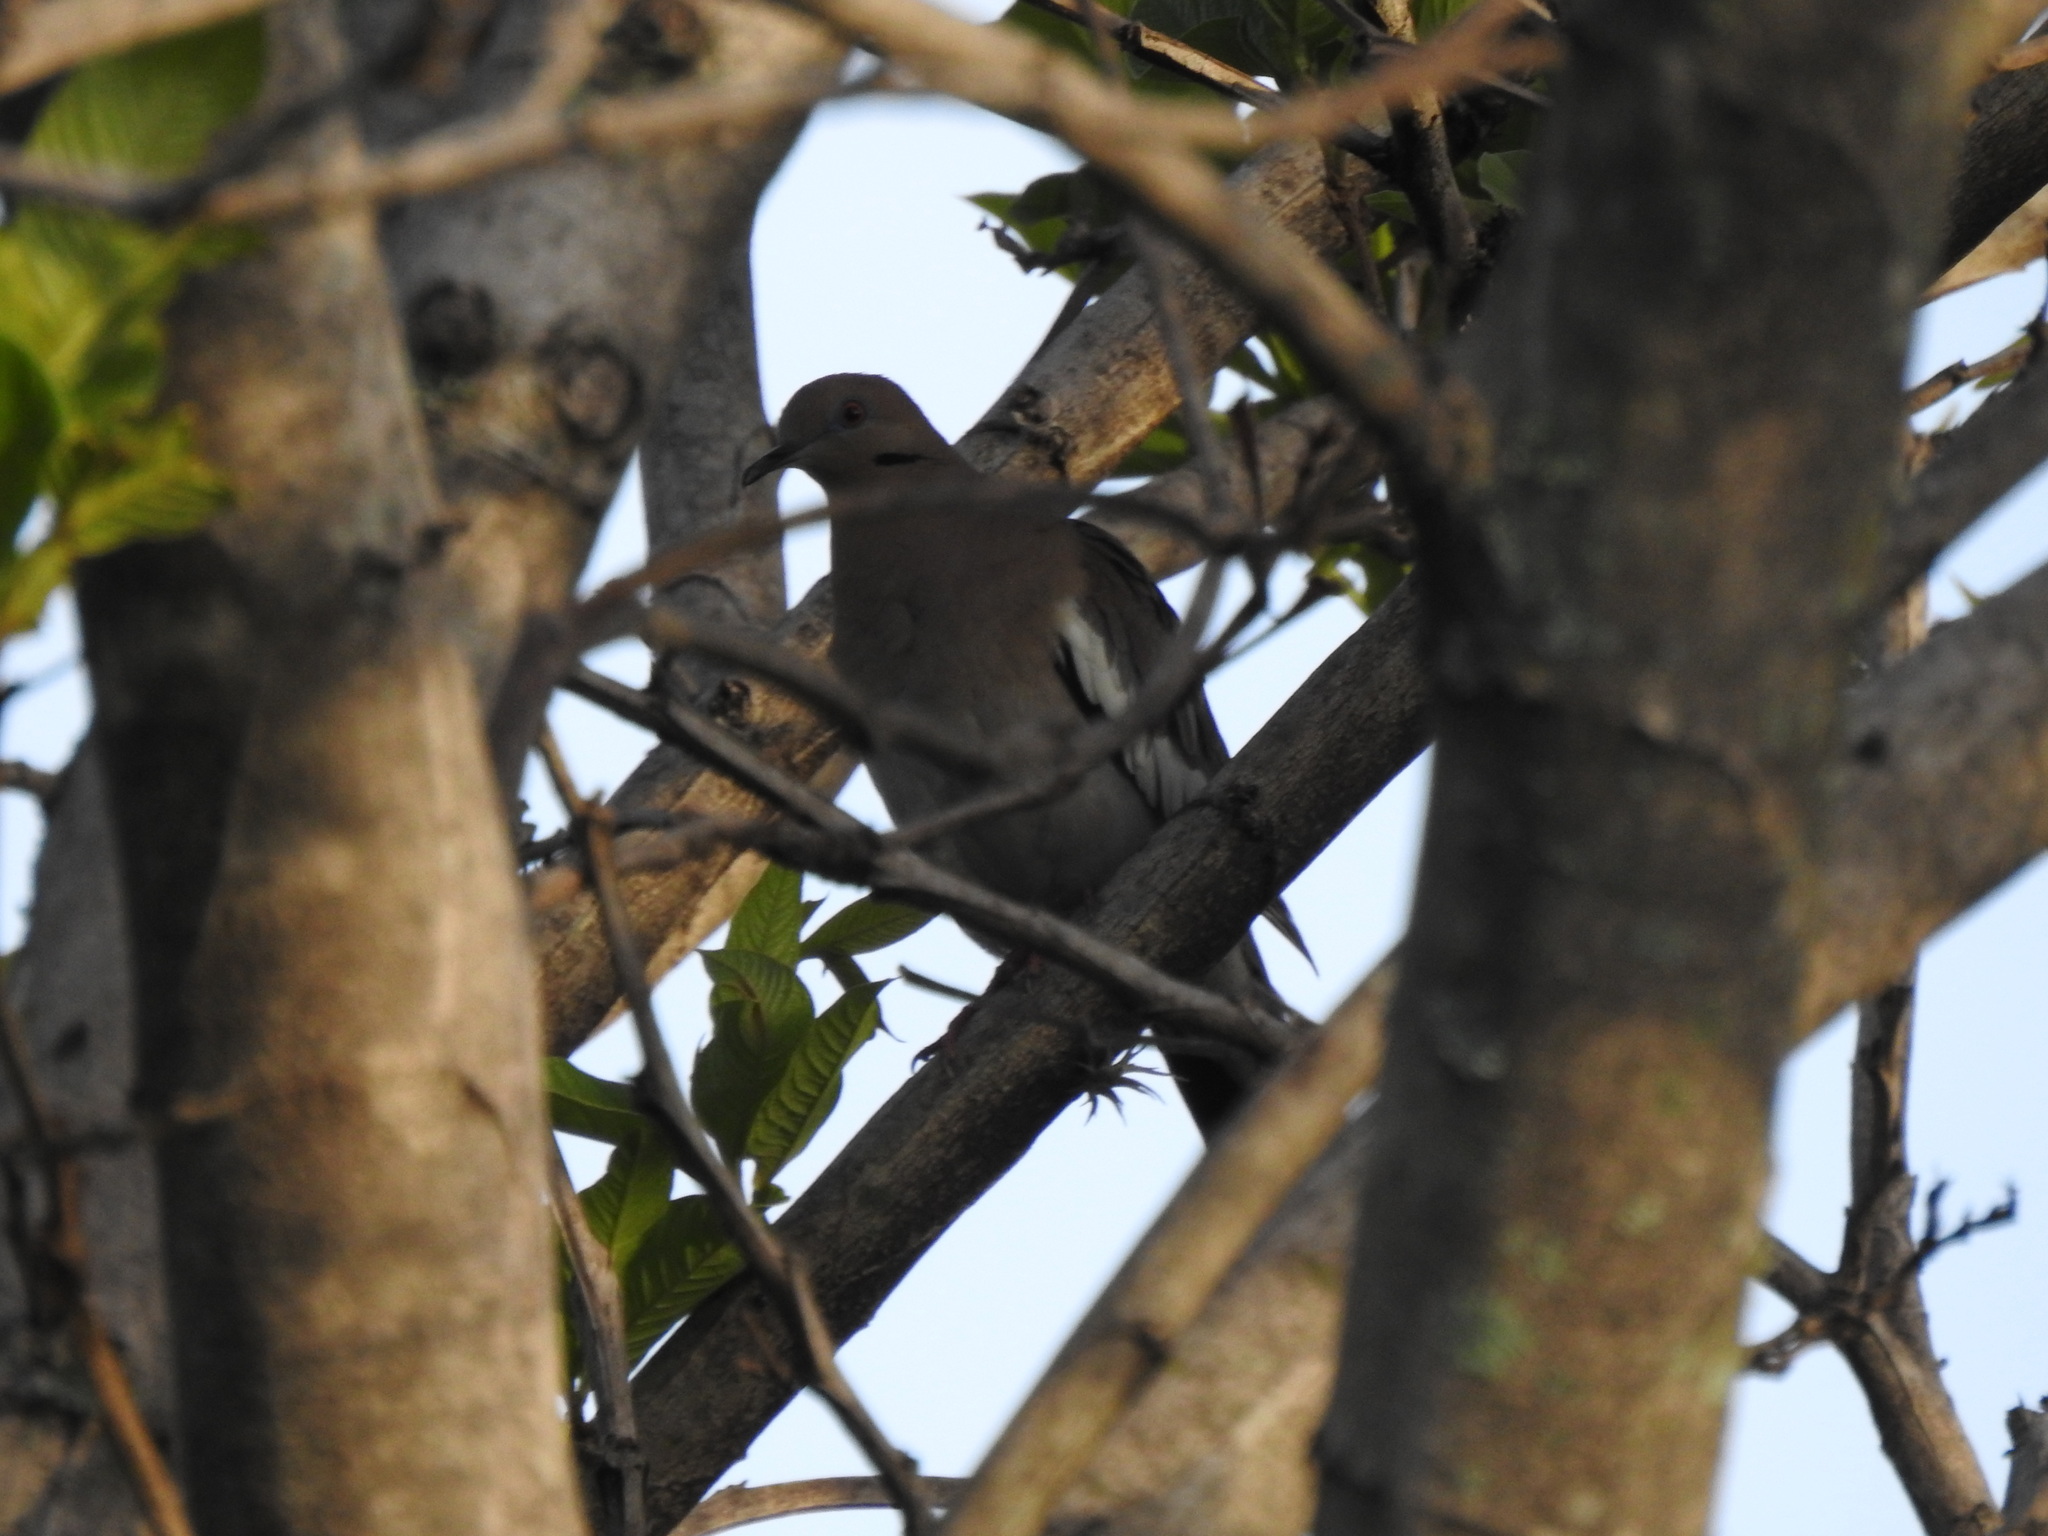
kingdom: Animalia
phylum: Chordata
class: Aves
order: Columbiformes
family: Columbidae
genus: Zenaida
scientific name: Zenaida asiatica
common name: White-winged dove
